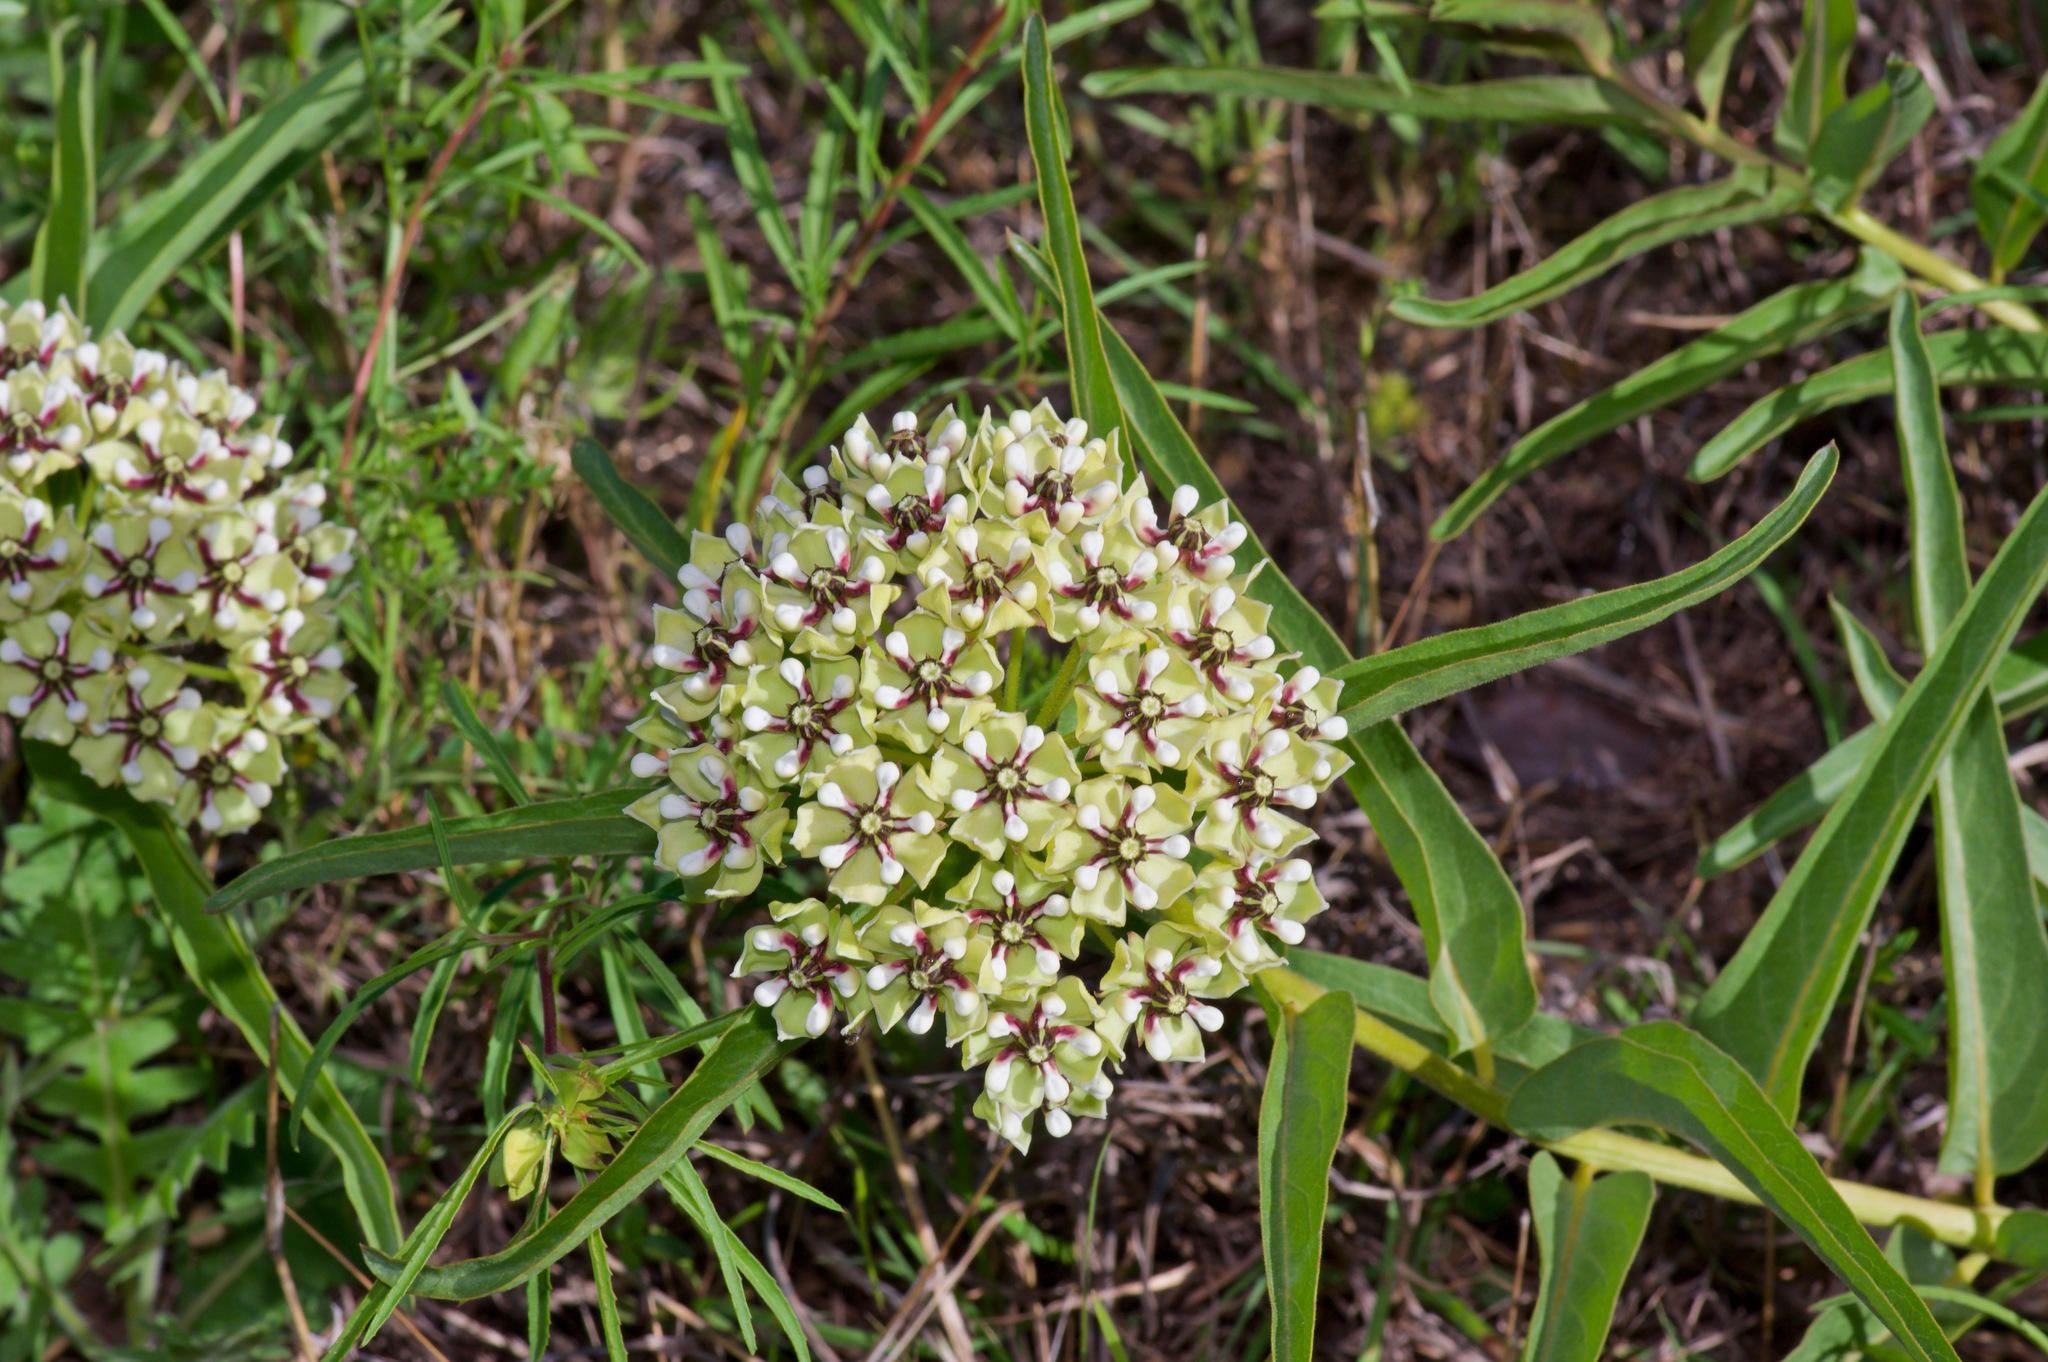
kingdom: Plantae
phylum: Tracheophyta
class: Magnoliopsida
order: Gentianales
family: Apocynaceae
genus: Asclepias
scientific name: Asclepias asperula
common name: Antelope horns
